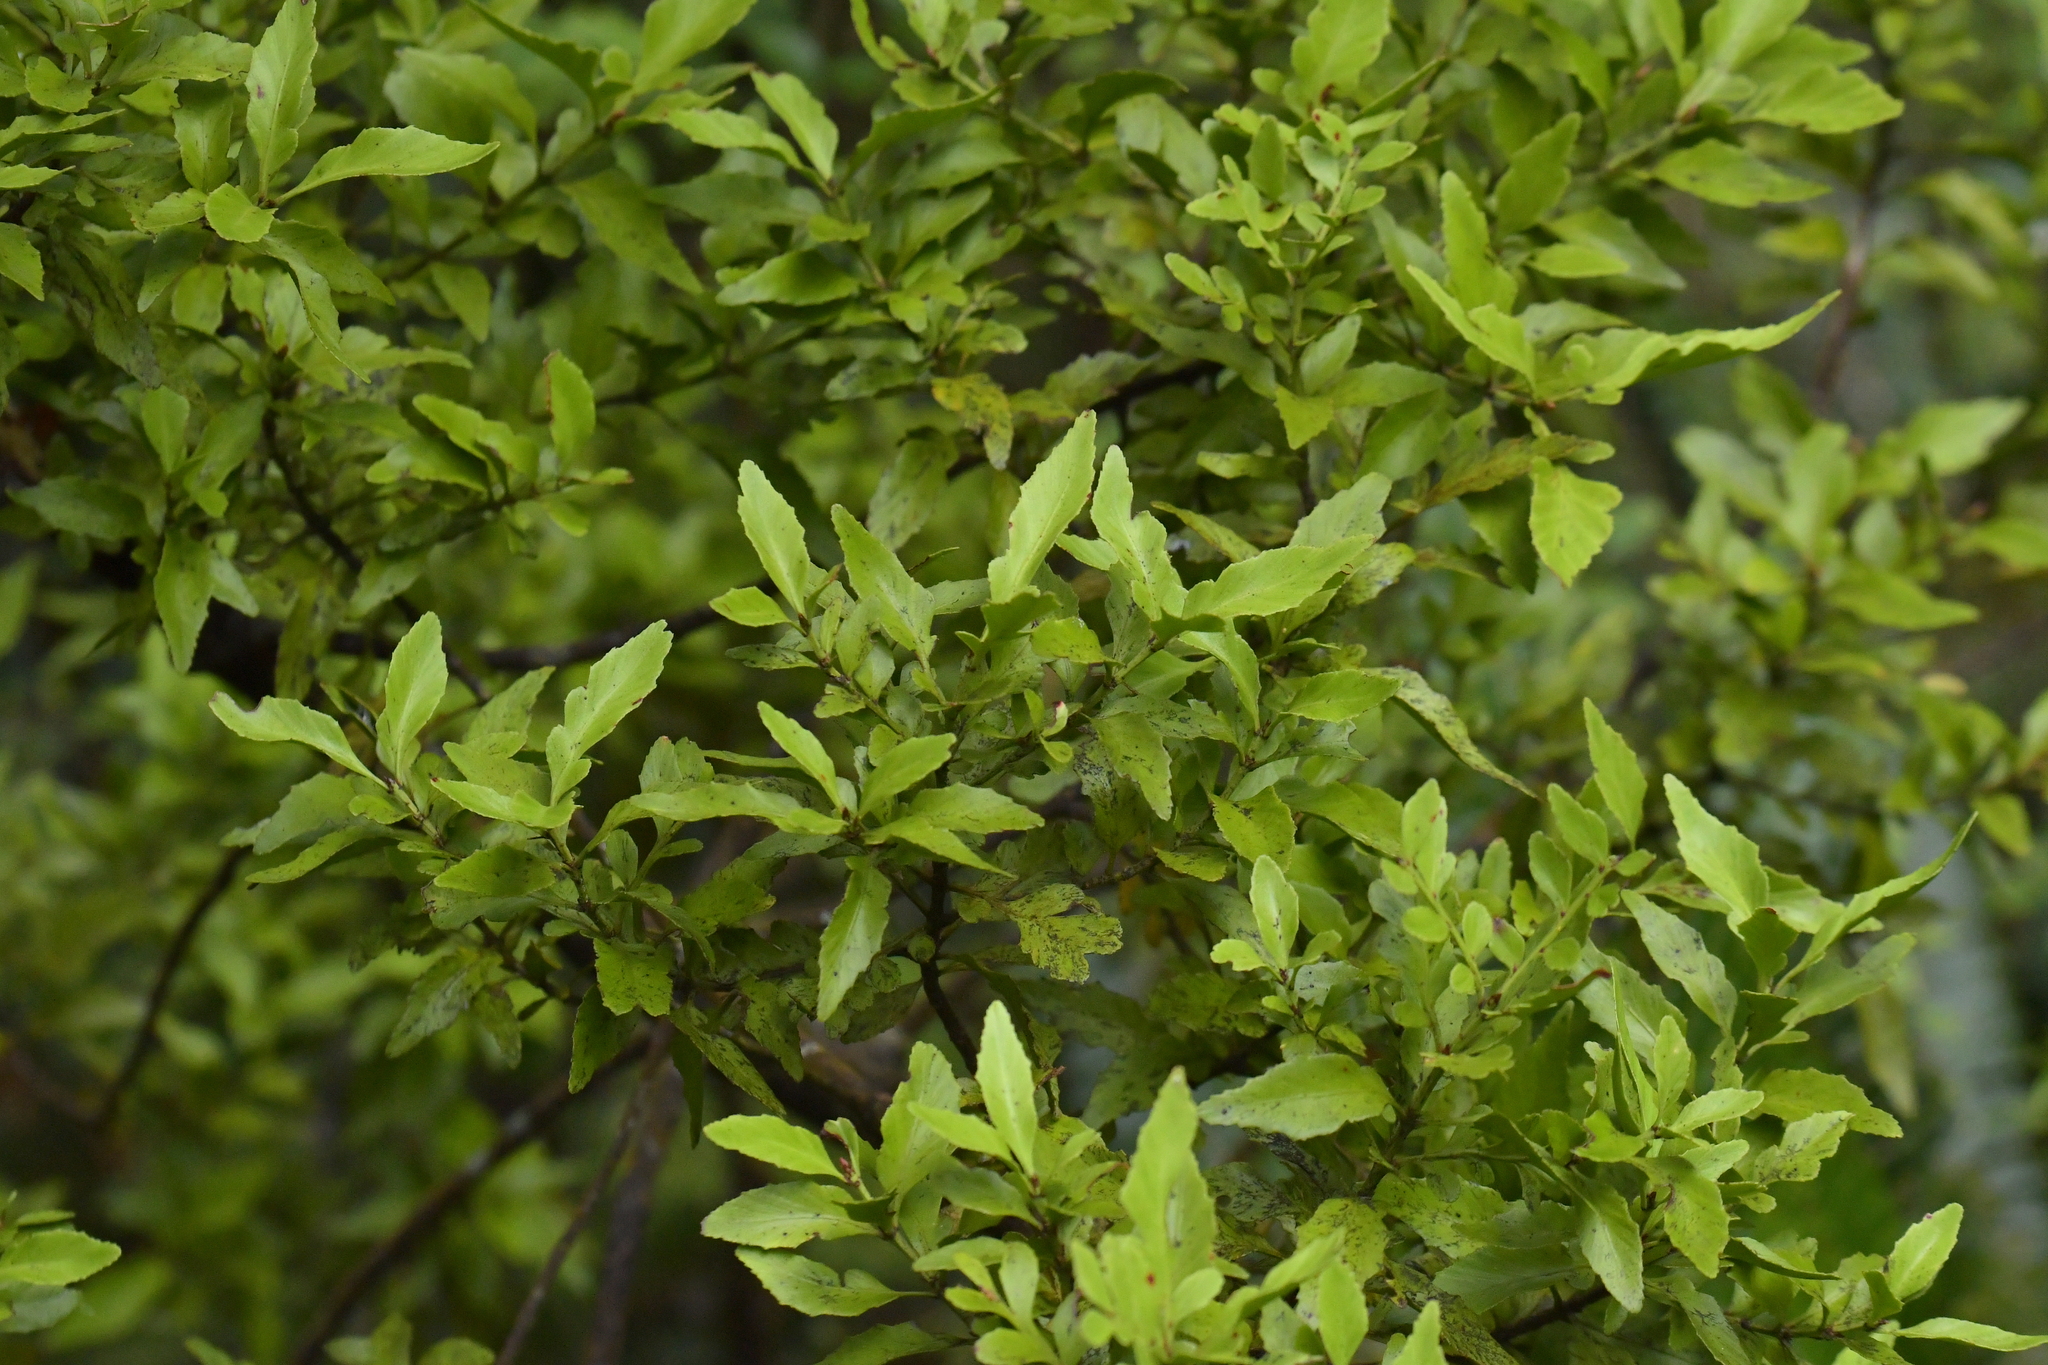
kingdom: Plantae
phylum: Tracheophyta
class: Pinopsida
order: Pinales
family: Phyllocladaceae
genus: Phyllocladus
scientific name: Phyllocladus trichomanoides
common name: Celery pine
